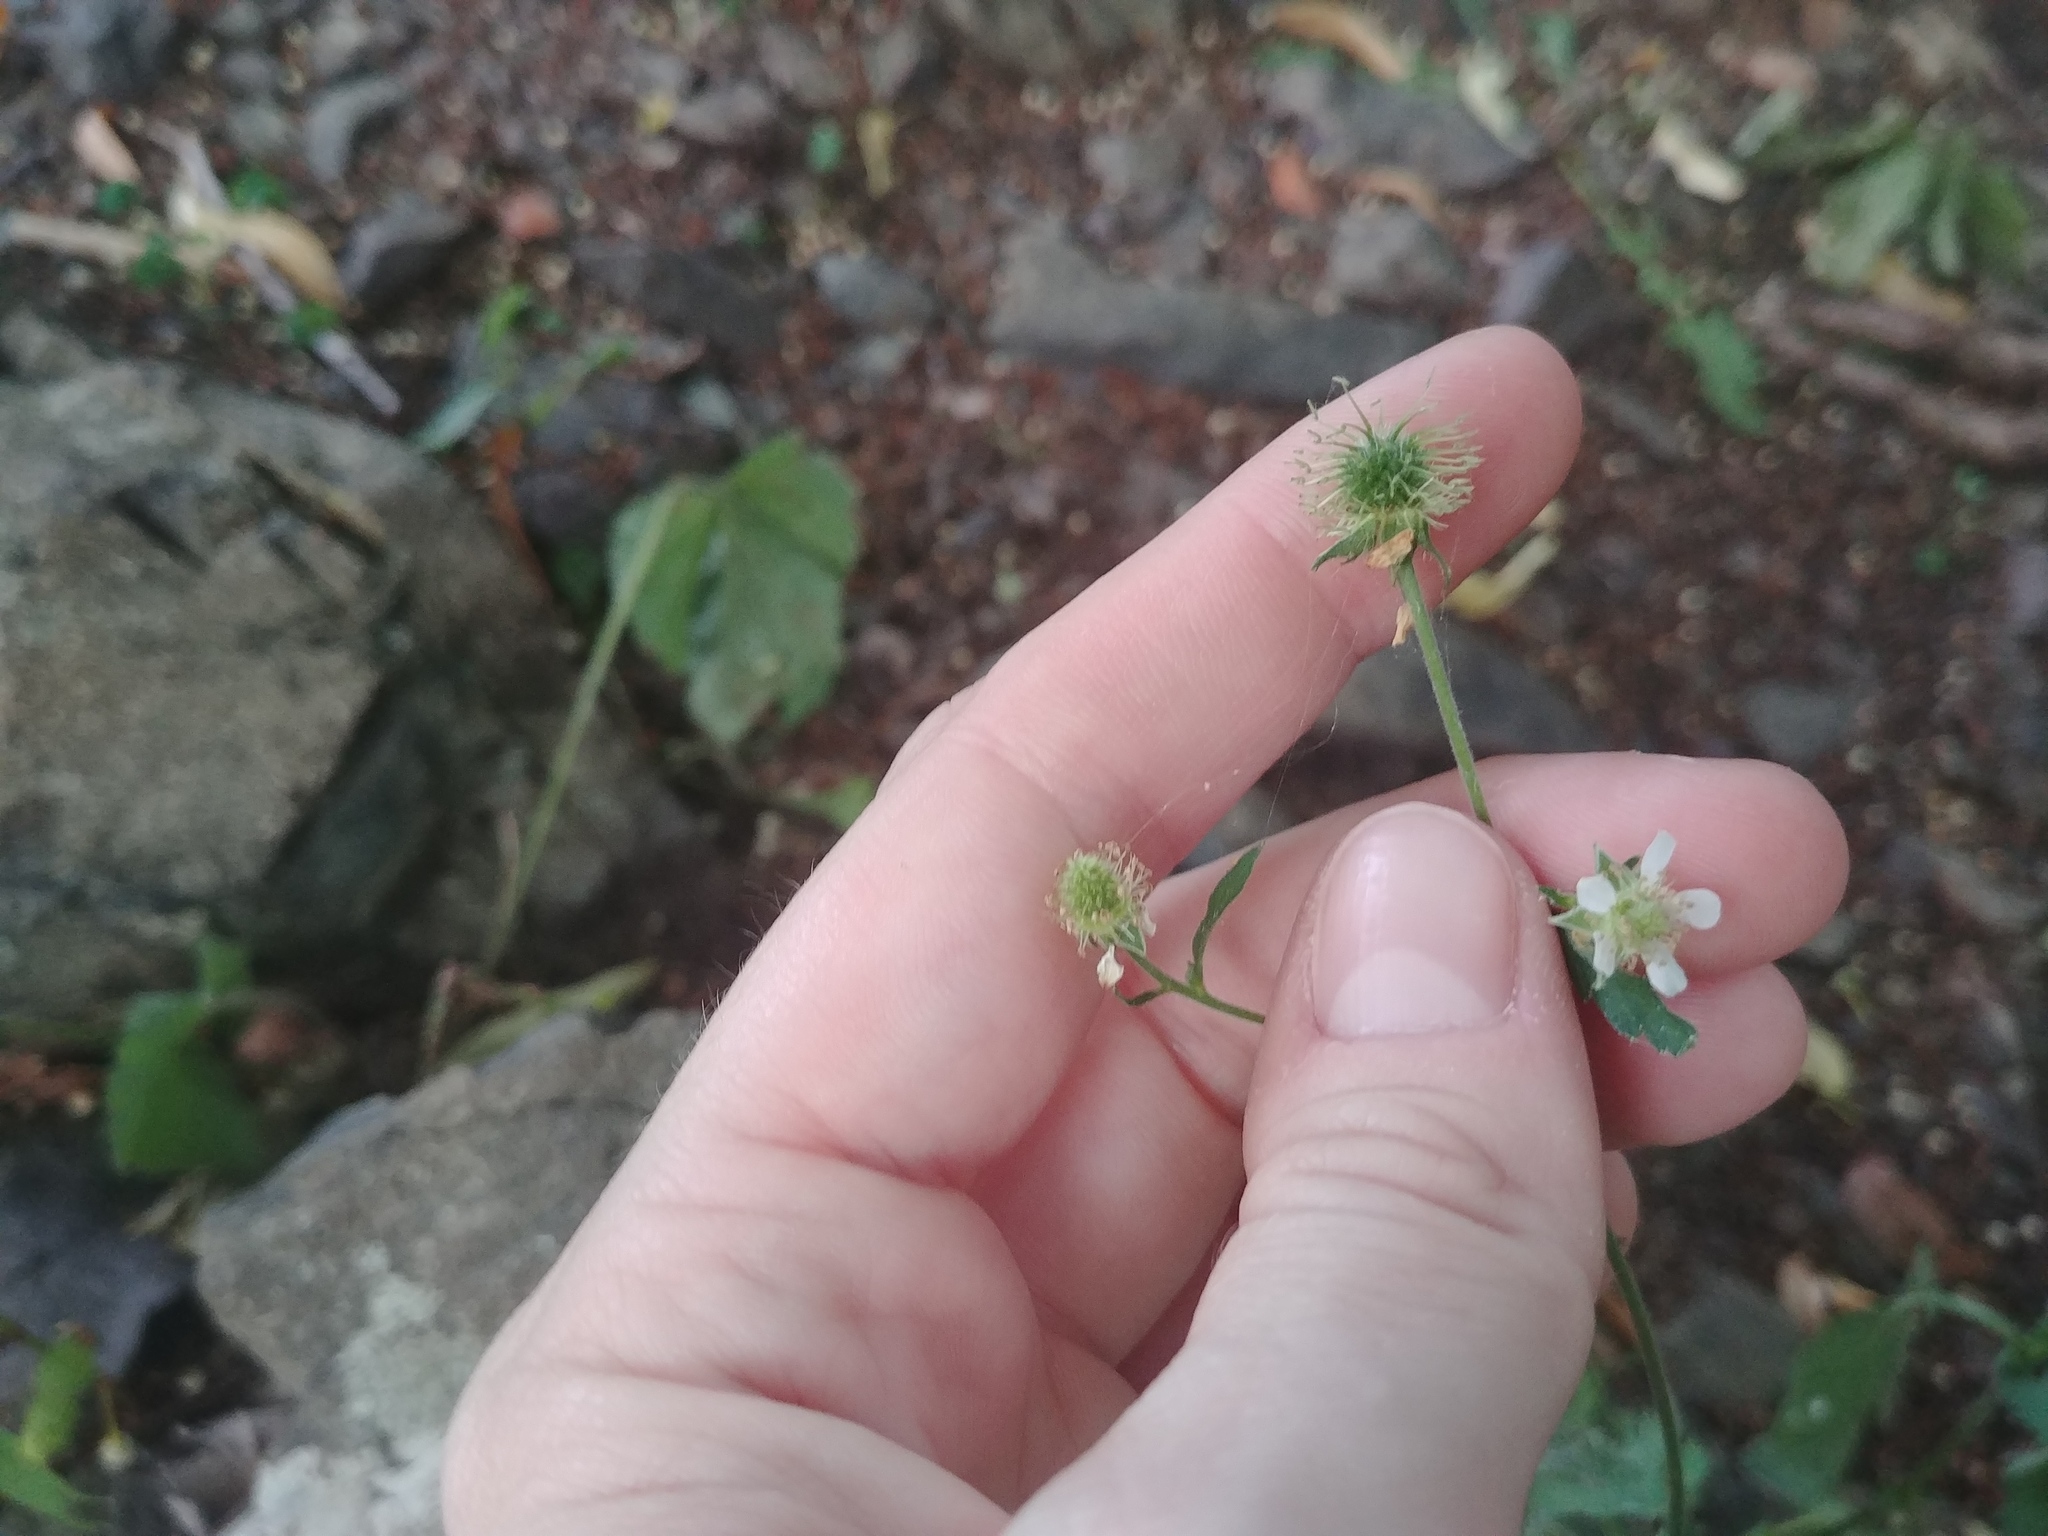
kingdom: Plantae
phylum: Tracheophyta
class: Magnoliopsida
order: Rosales
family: Rosaceae
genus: Geum
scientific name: Geum canadense
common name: White avens
